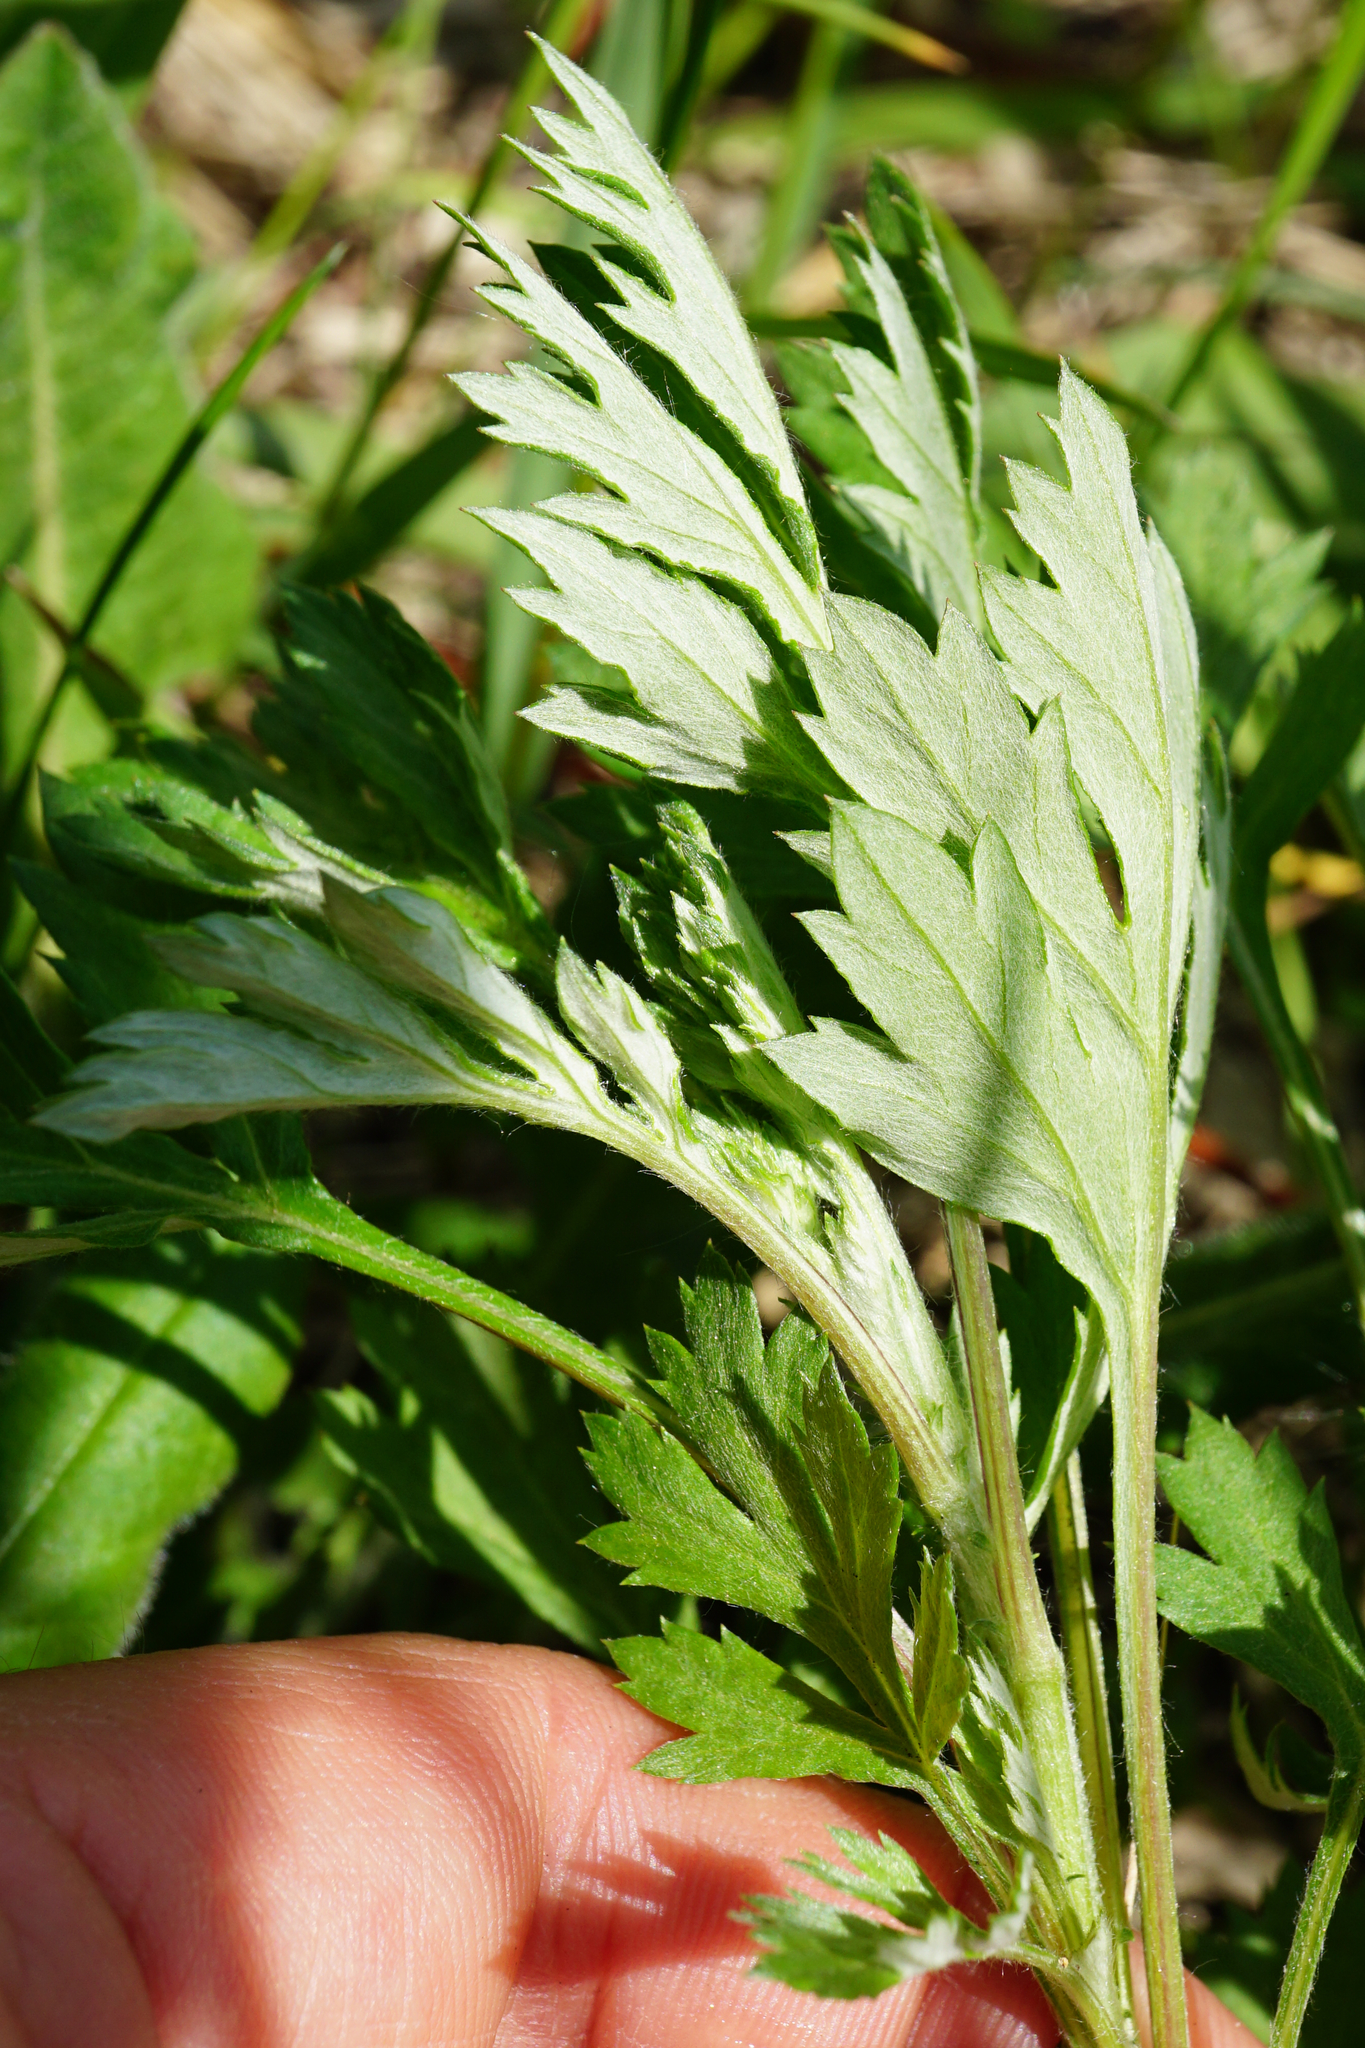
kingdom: Plantae
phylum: Tracheophyta
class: Magnoliopsida
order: Asterales
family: Asteraceae
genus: Artemisia
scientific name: Artemisia vulgaris
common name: Mugwort
